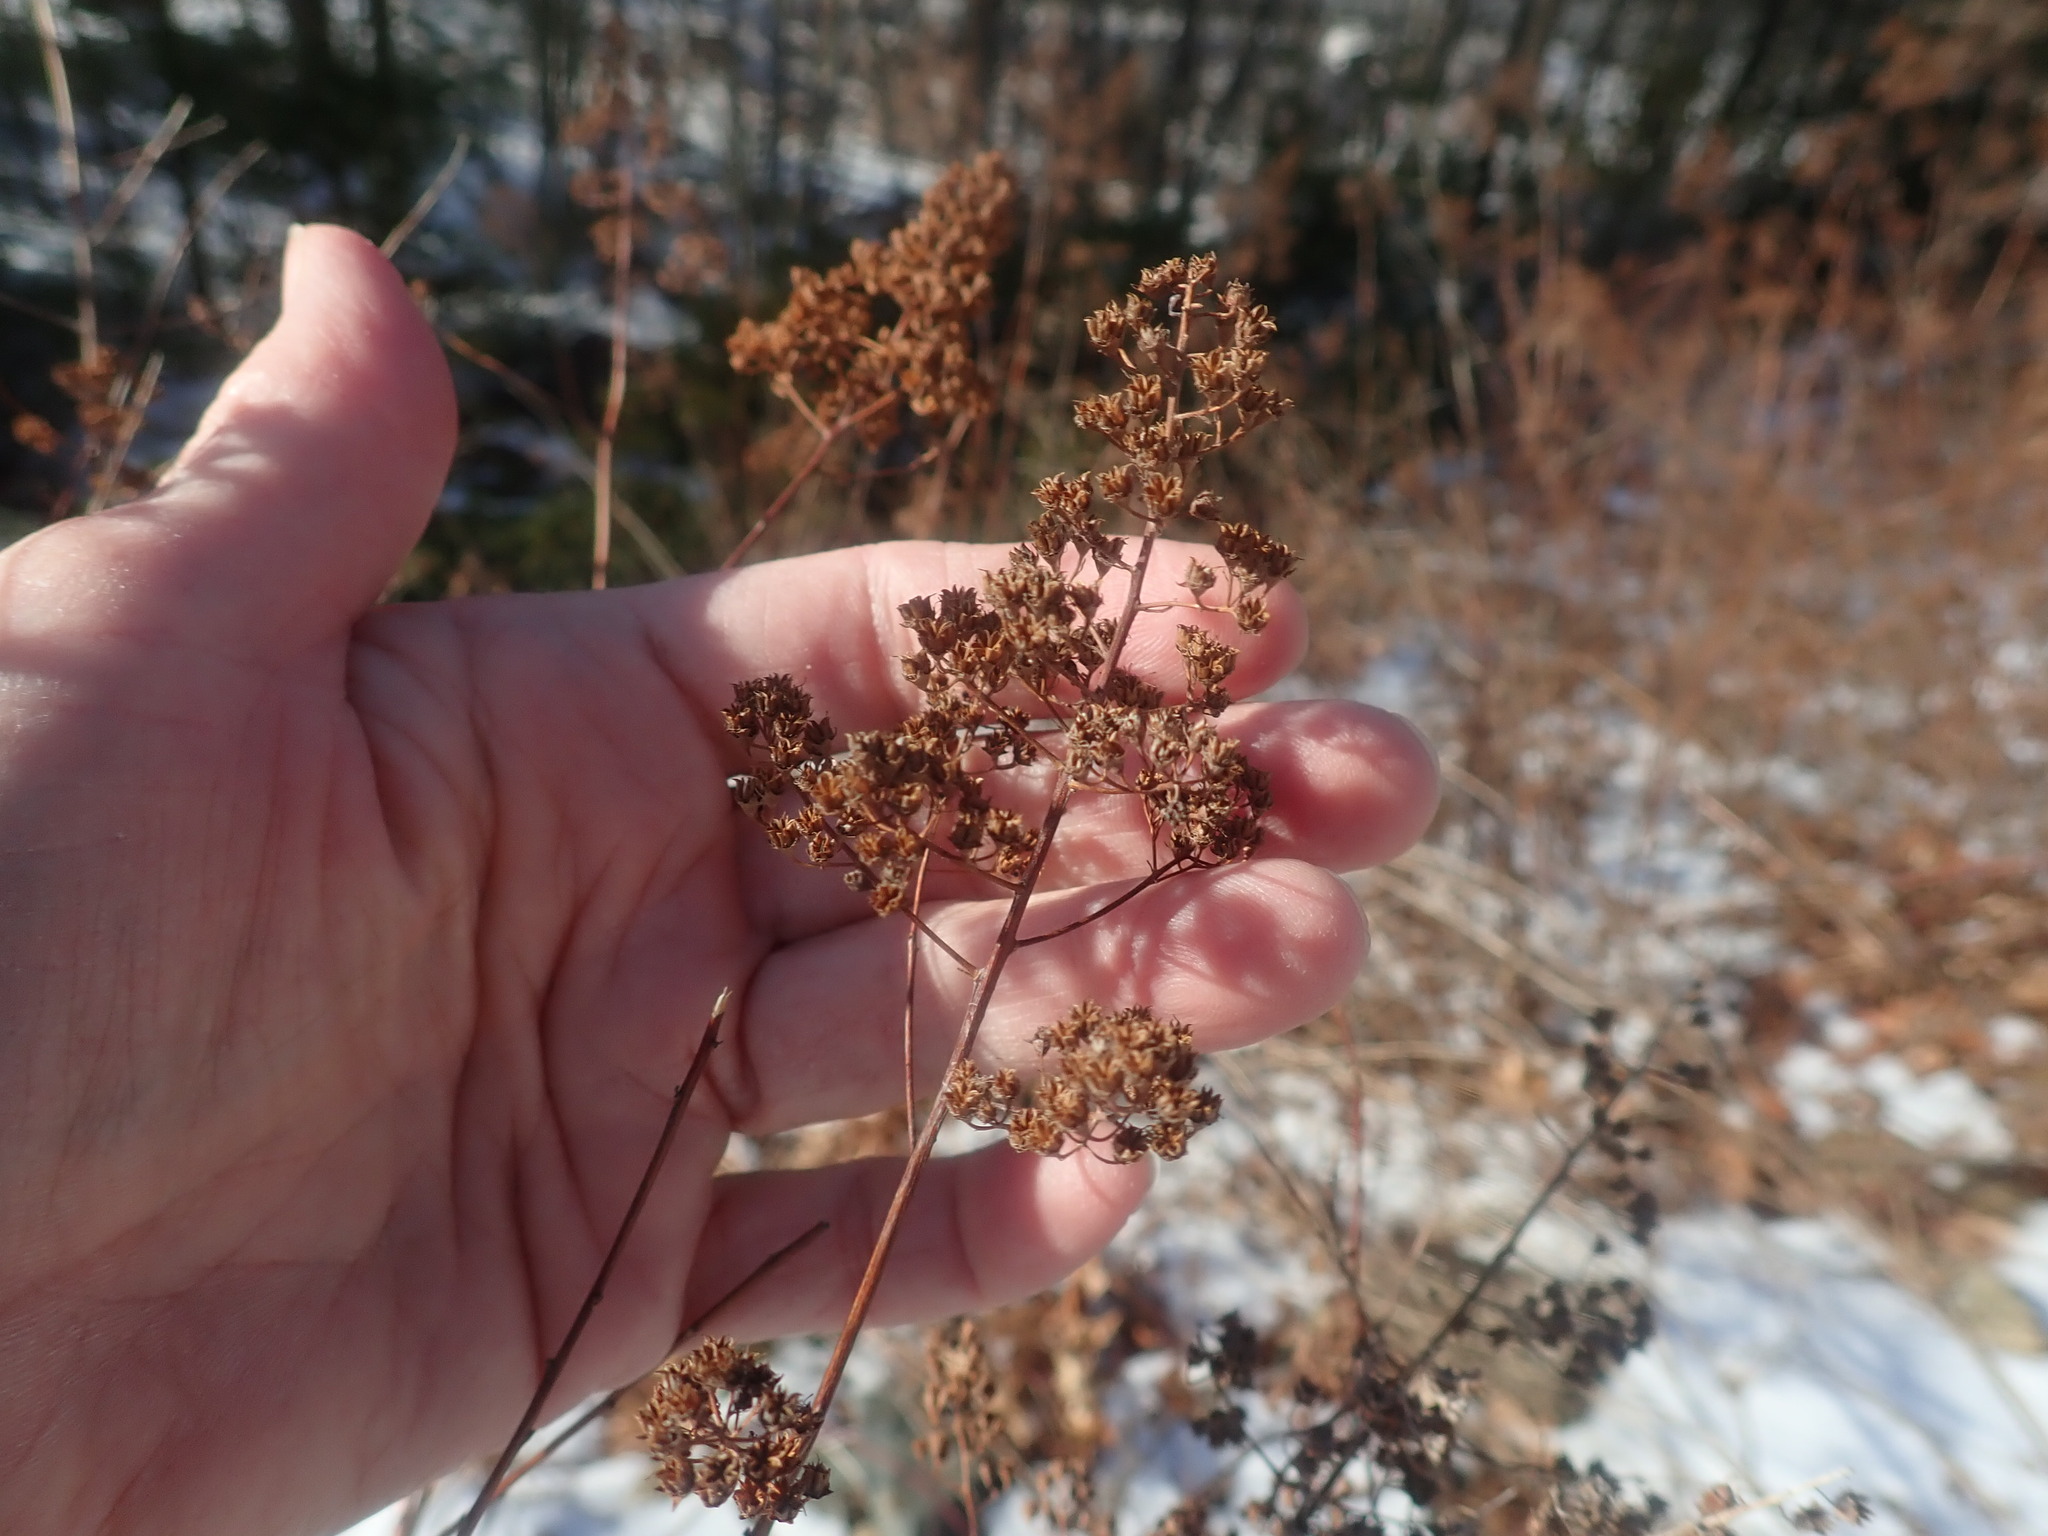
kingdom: Plantae
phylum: Tracheophyta
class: Magnoliopsida
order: Rosales
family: Rosaceae
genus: Spiraea
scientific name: Spiraea alba
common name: Pale bridewort
